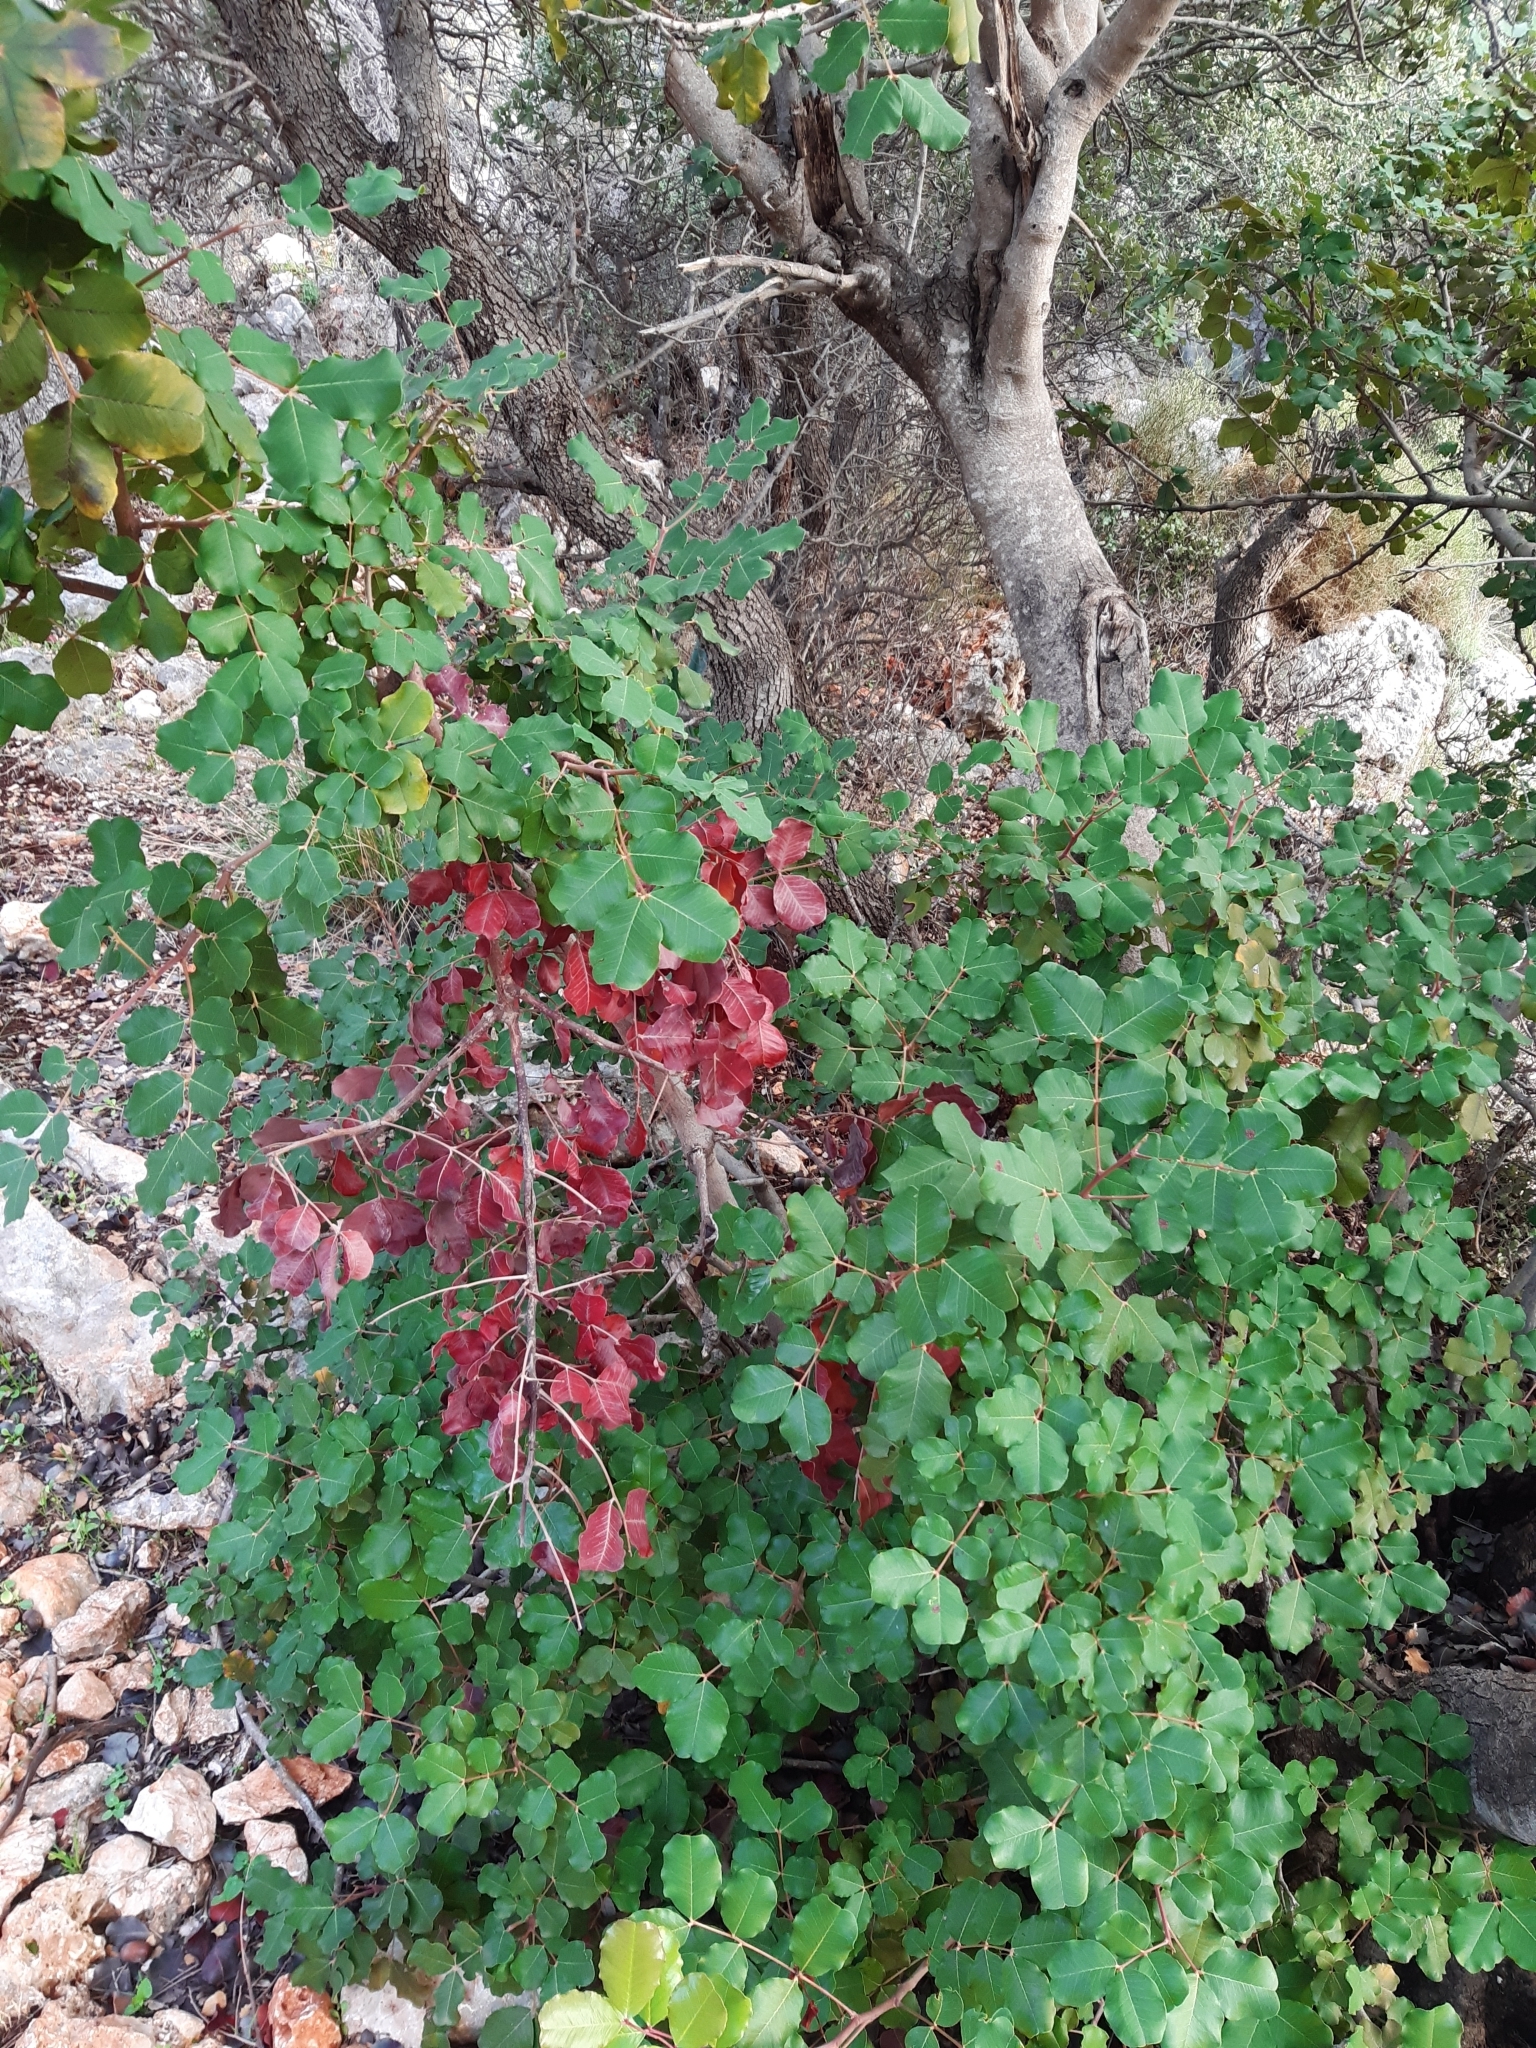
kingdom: Plantae
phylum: Tracheophyta
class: Magnoliopsida
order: Fabales
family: Fabaceae
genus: Ceratonia
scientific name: Ceratonia siliqua
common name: Carob
